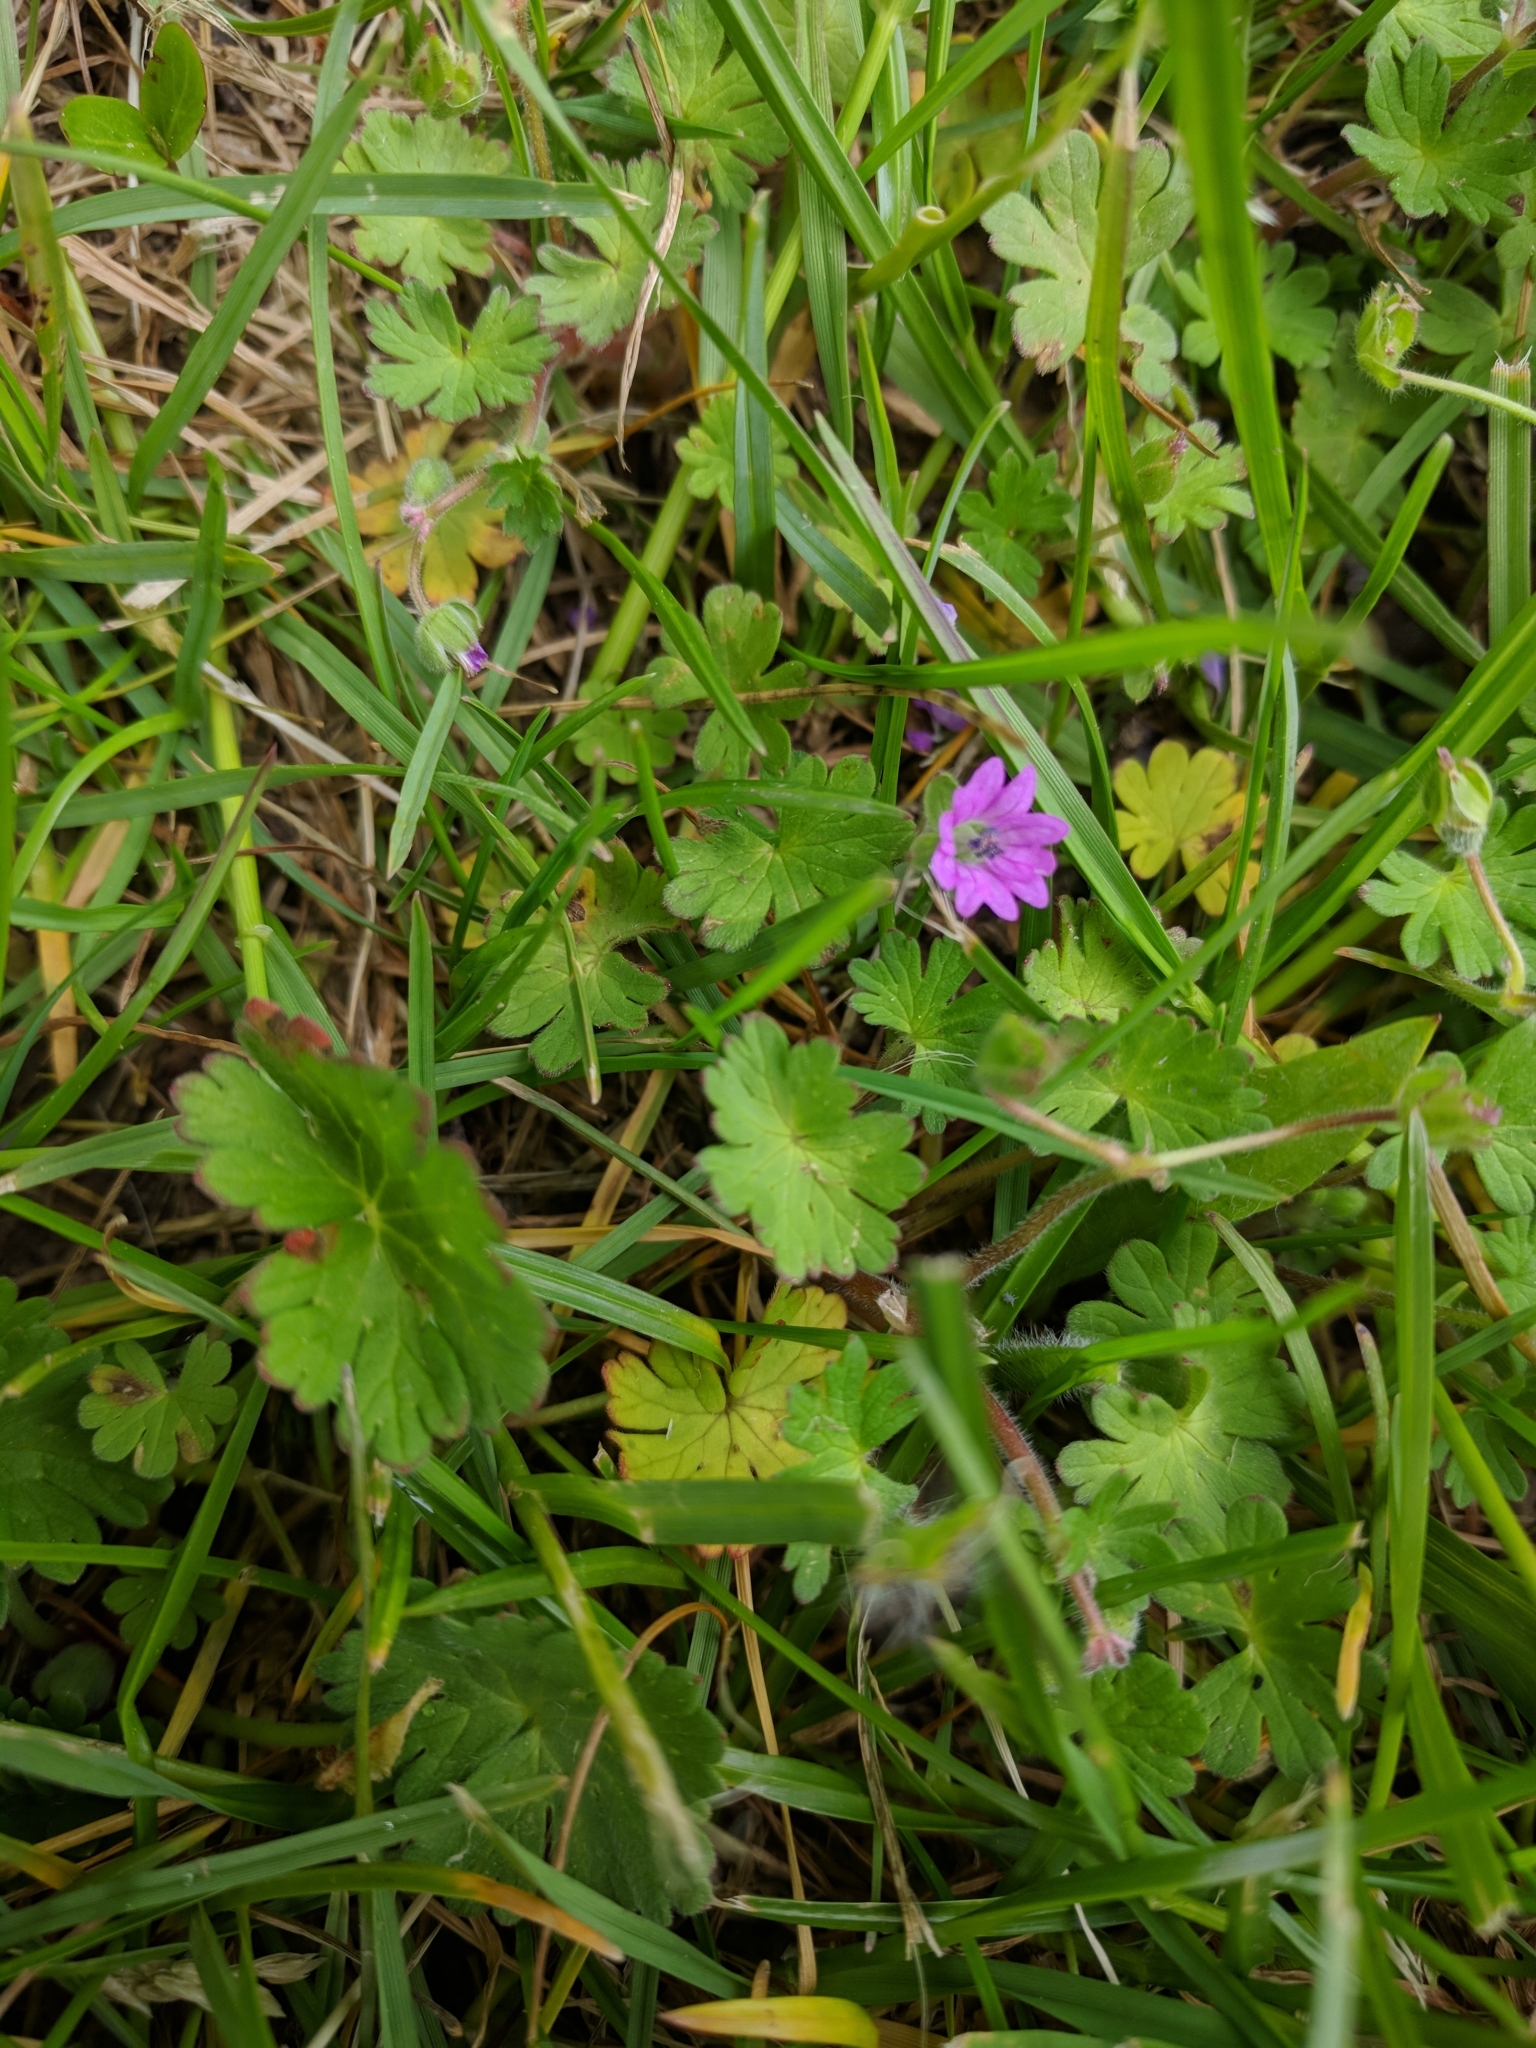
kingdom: Plantae
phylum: Tracheophyta
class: Magnoliopsida
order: Geraniales
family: Geraniaceae
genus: Geranium
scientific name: Geranium molle
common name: Dove's-foot crane's-bill
